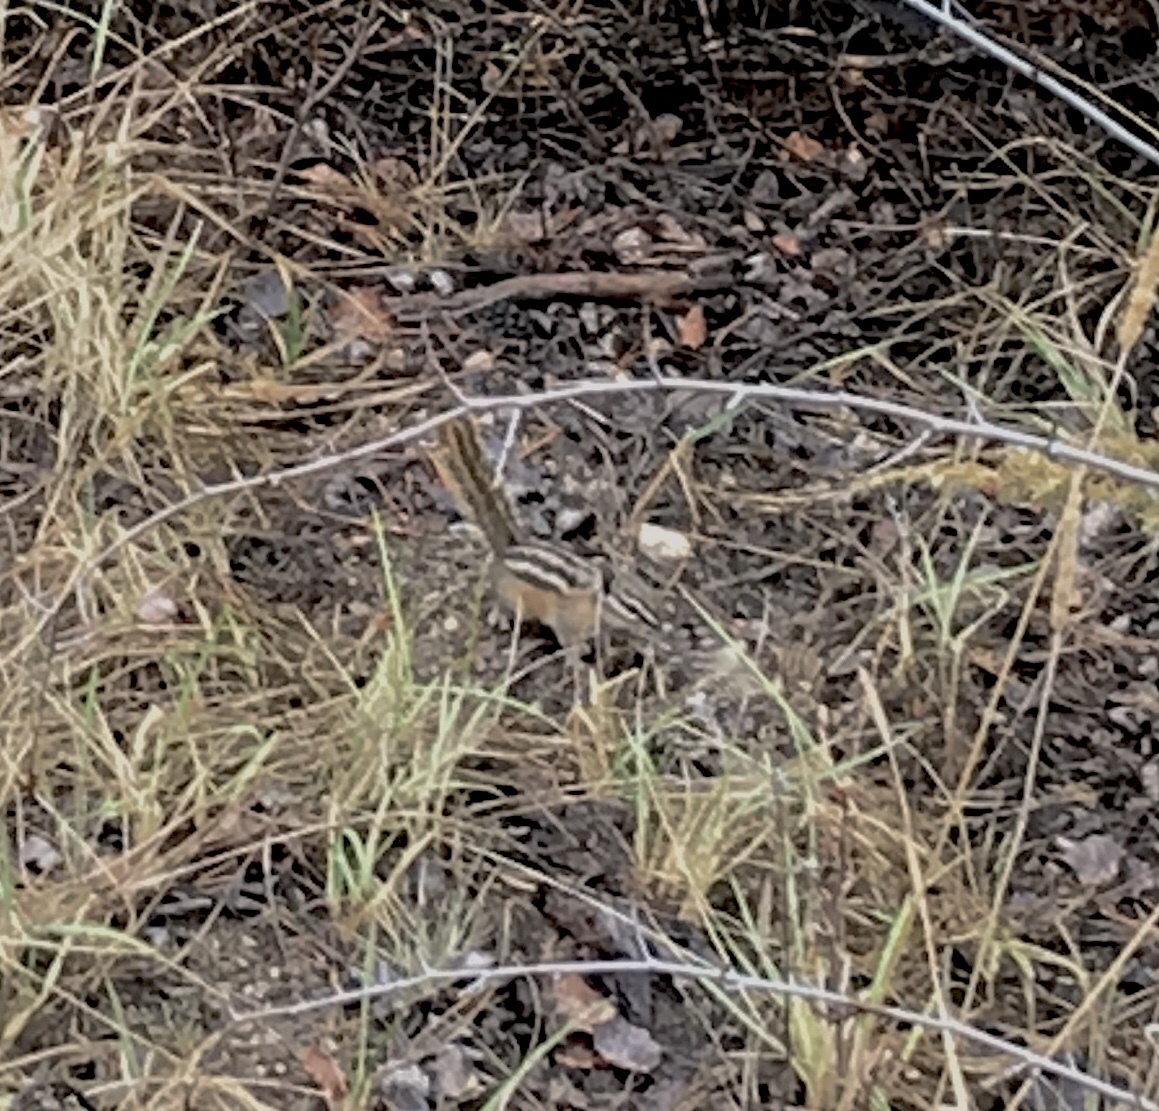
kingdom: Animalia
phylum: Chordata
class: Mammalia
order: Rodentia
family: Sciuridae
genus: Tamias
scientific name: Tamias minimus
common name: Least chipmunk
